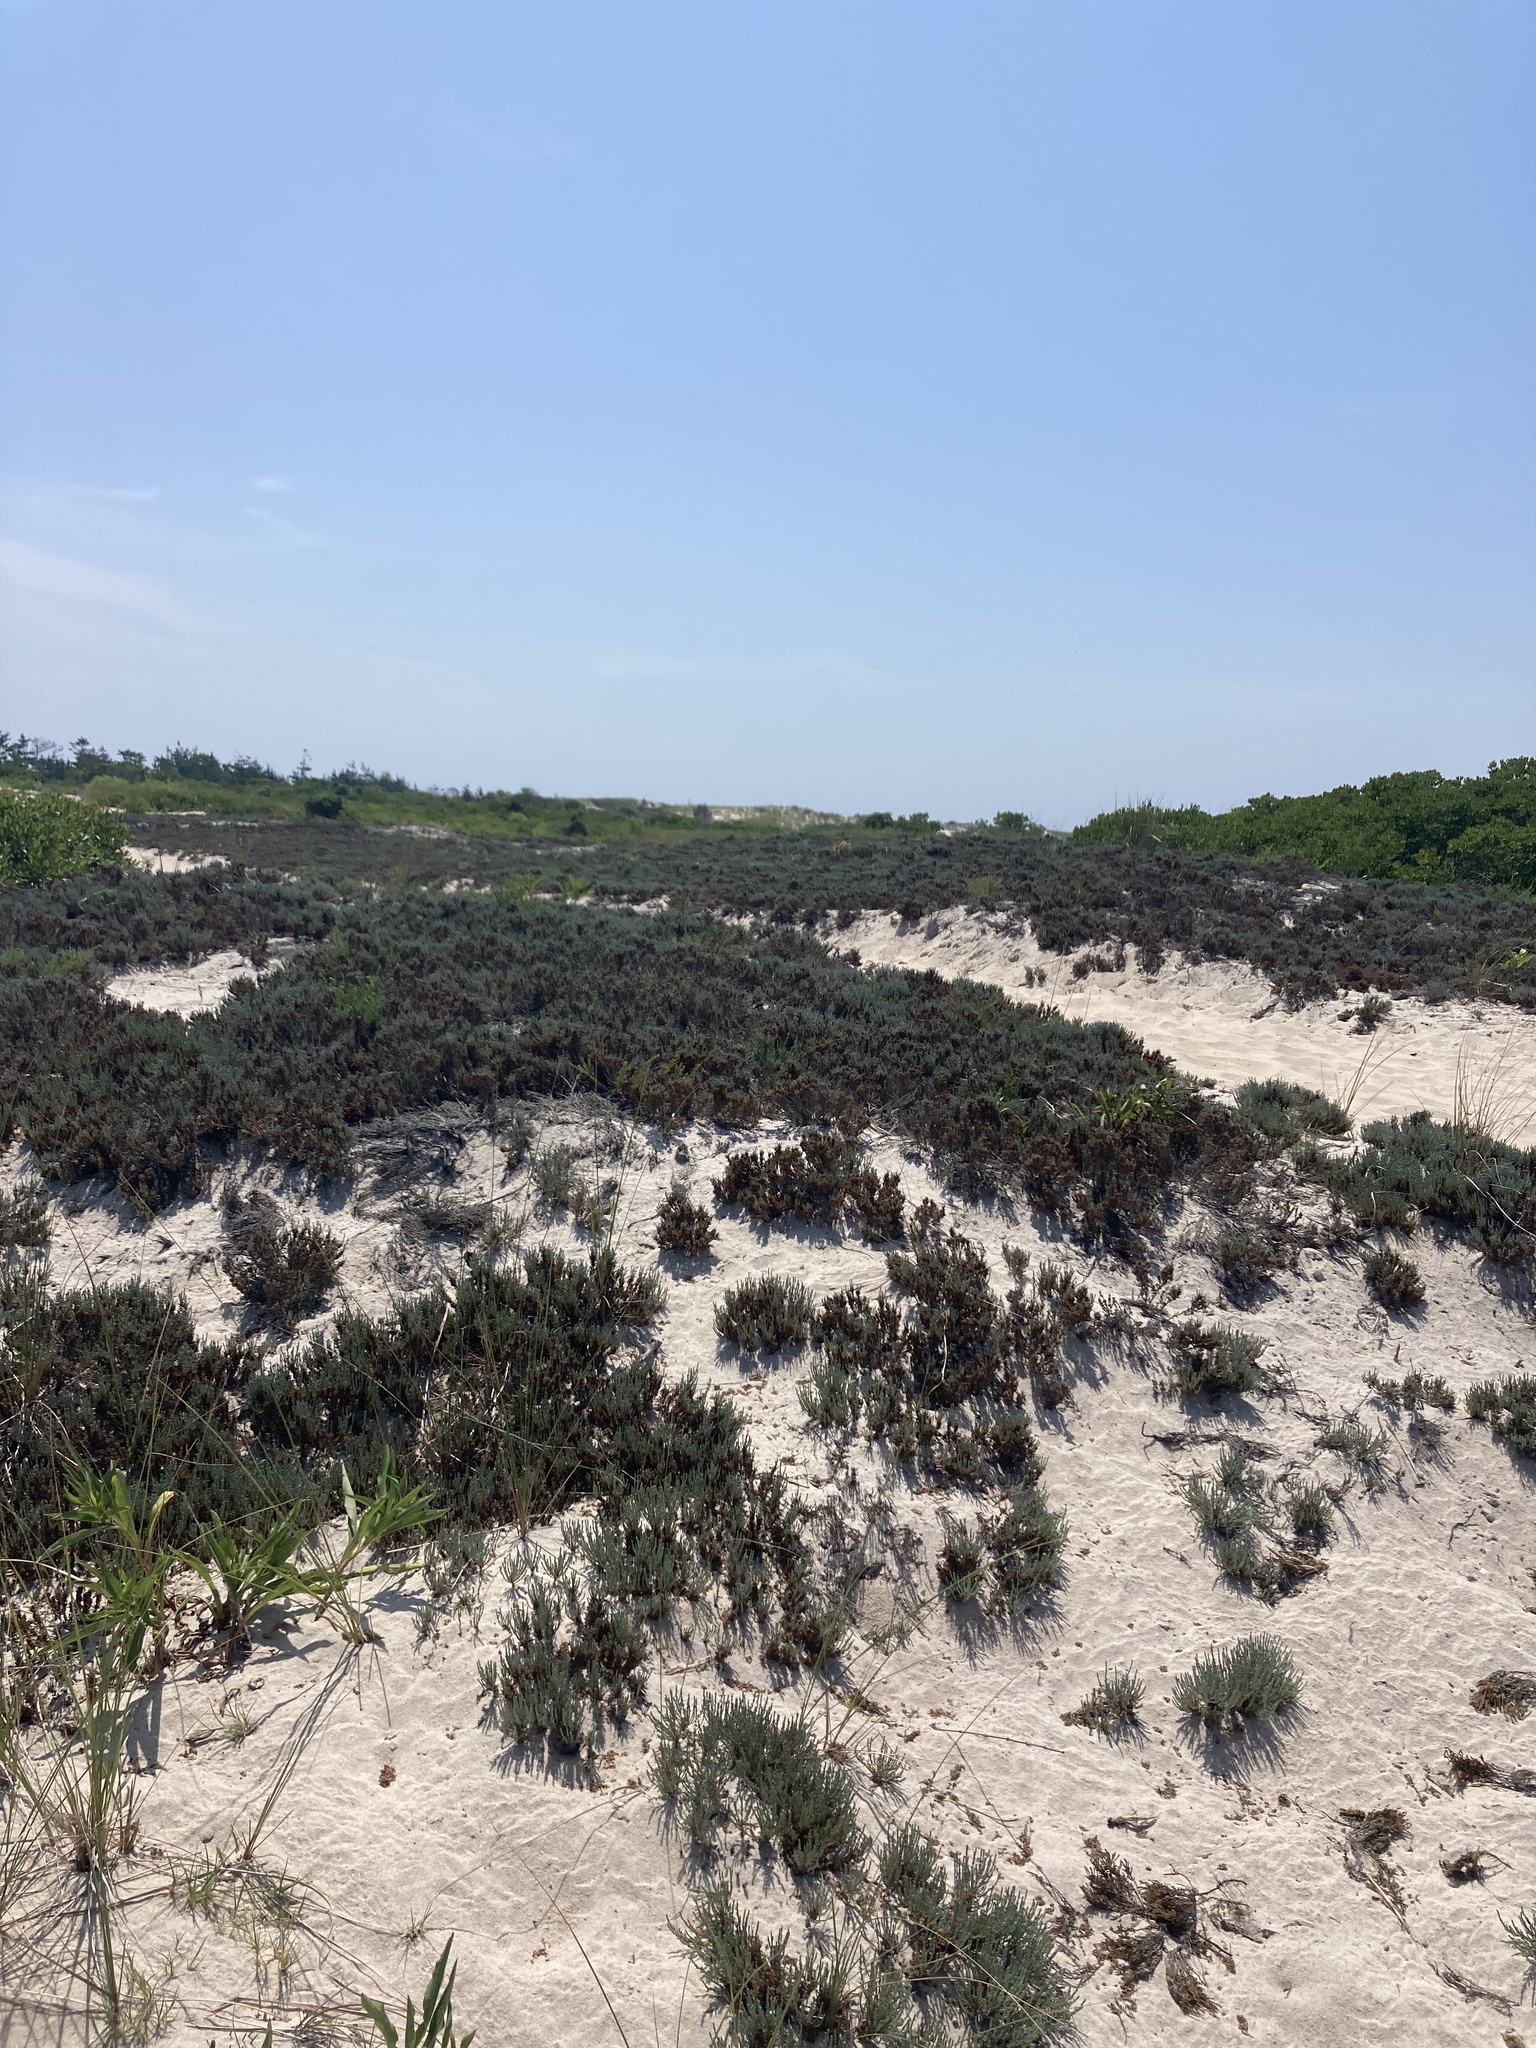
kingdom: Plantae
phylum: Tracheophyta
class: Magnoliopsida
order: Malvales
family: Cistaceae
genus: Hudsonia
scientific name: Hudsonia tomentosa
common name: Beach-heath
